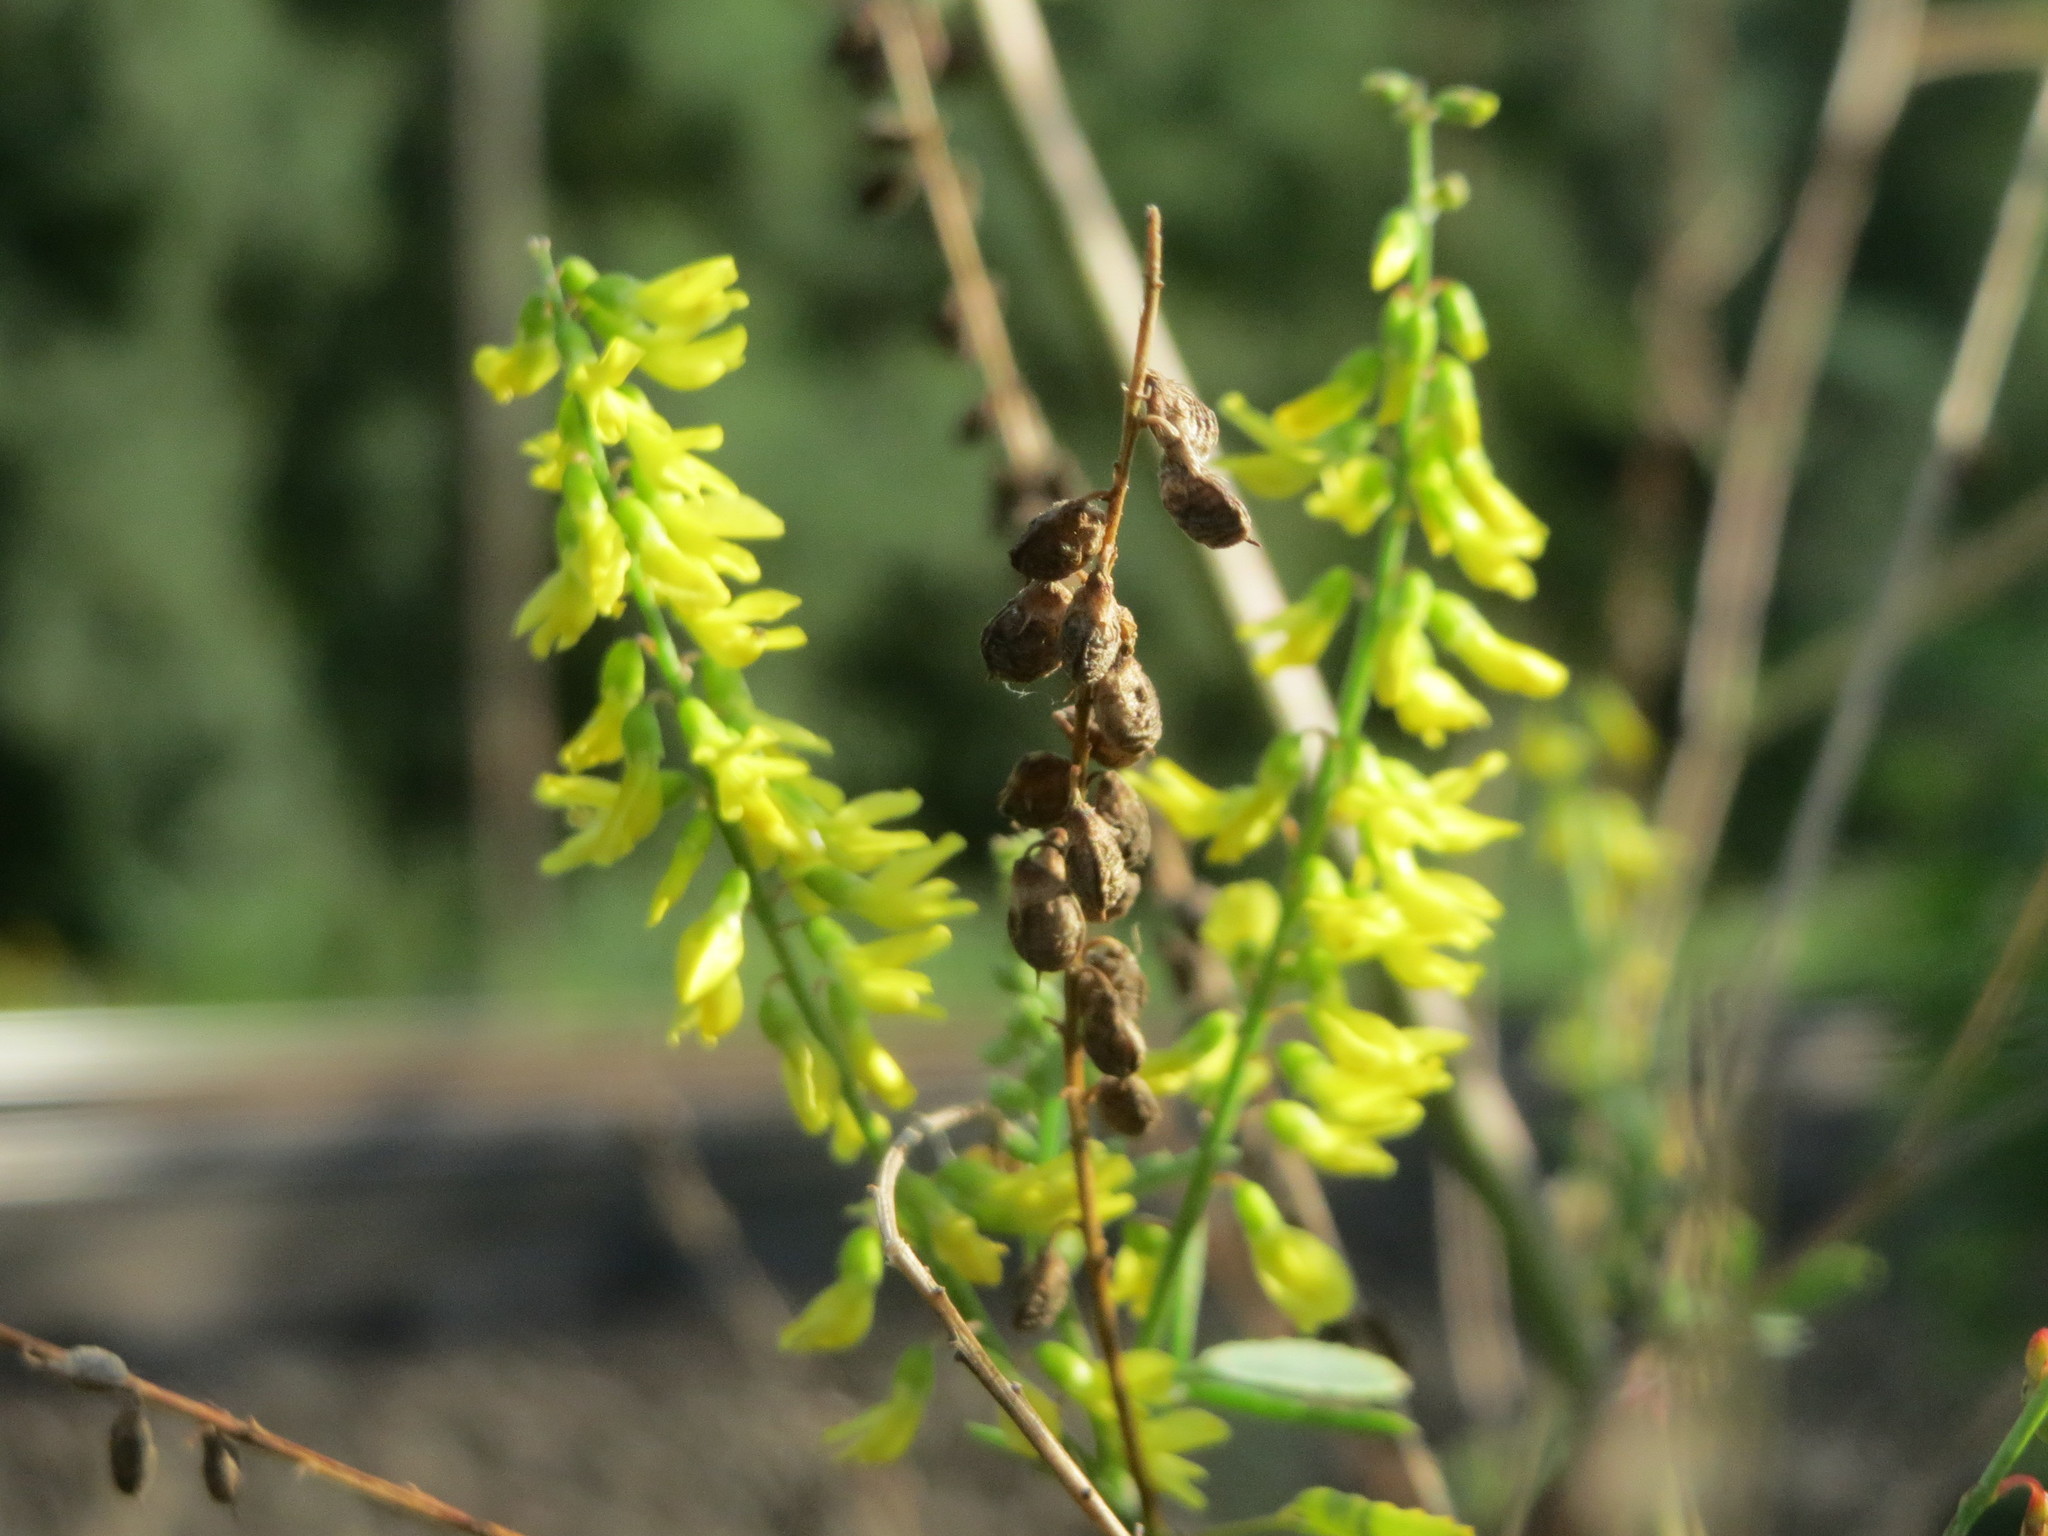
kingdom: Plantae
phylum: Tracheophyta
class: Magnoliopsida
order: Fabales
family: Fabaceae
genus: Melilotus
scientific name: Melilotus officinalis
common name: Sweetclover
